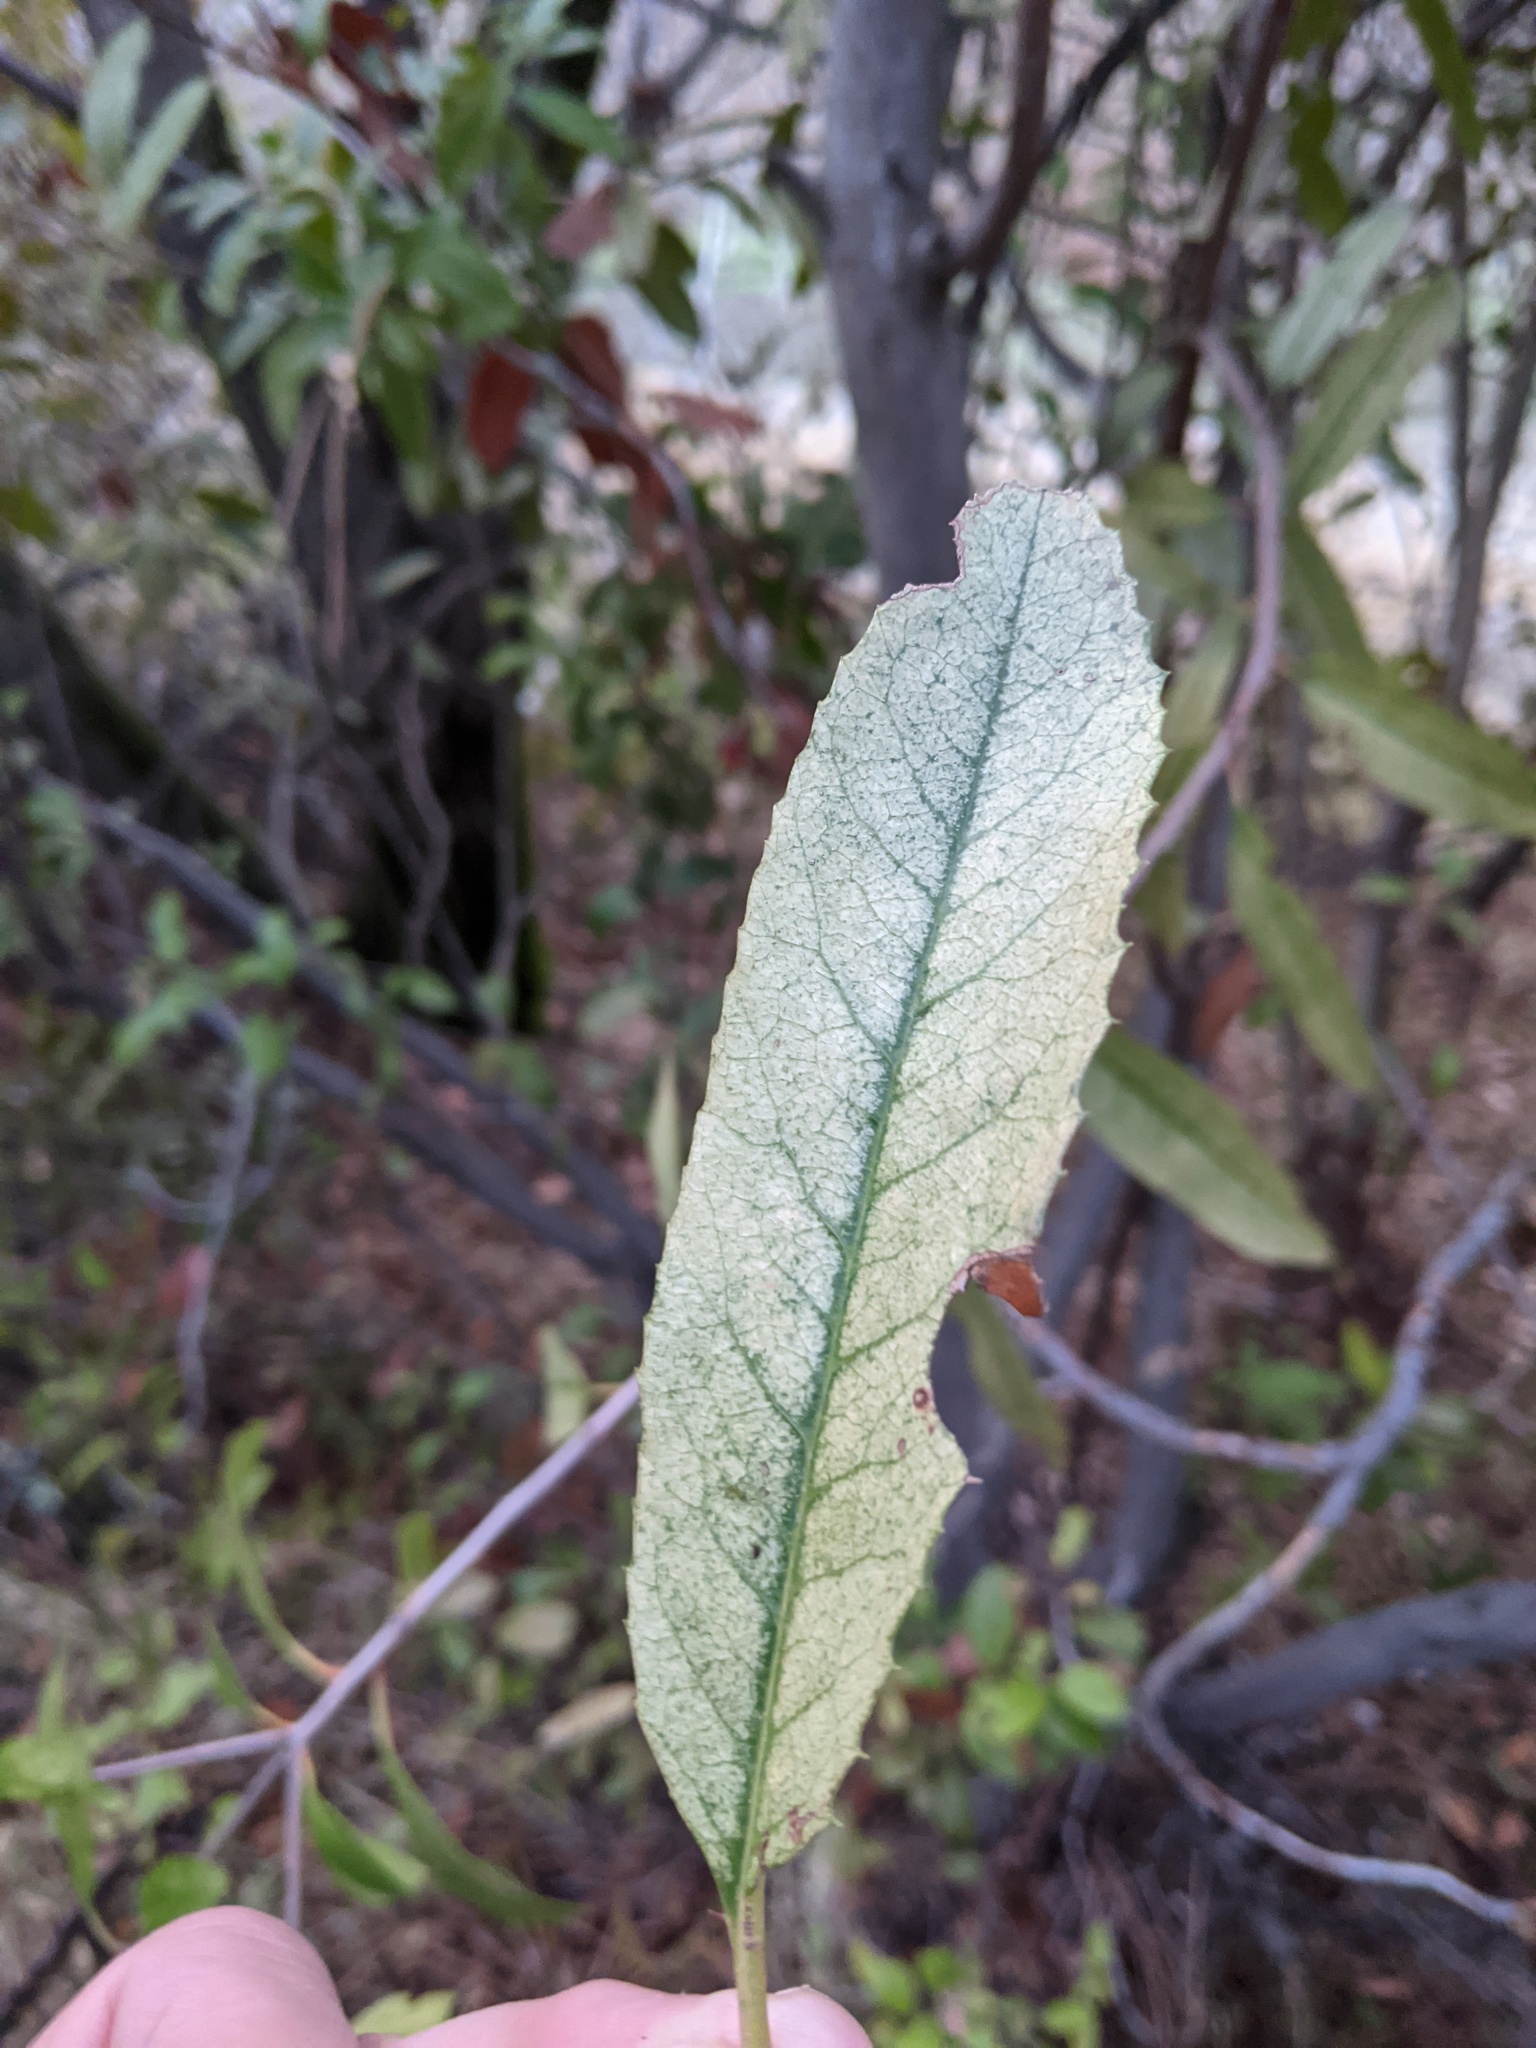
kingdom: Plantae
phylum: Tracheophyta
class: Magnoliopsida
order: Rosales
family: Rosaceae
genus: Heteromeles
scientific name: Heteromeles arbutifolia
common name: California-holly
